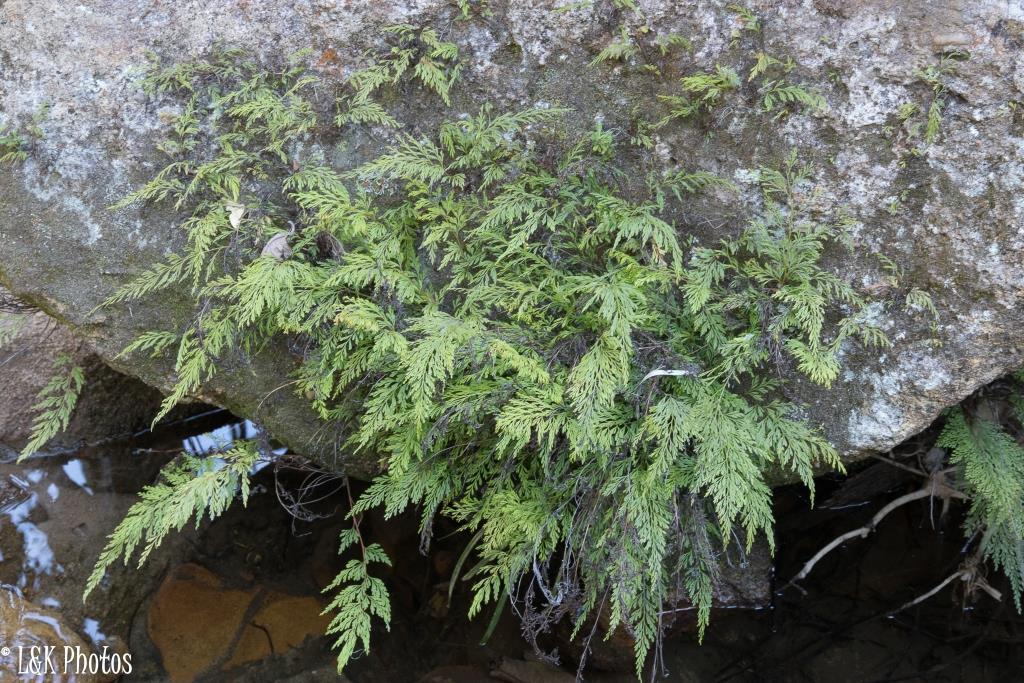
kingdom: Plantae
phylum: Tracheophyta
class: Polypodiopsida
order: Polypodiales
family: Lindsaeaceae
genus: Odontosoria
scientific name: Odontosoria chinensis
